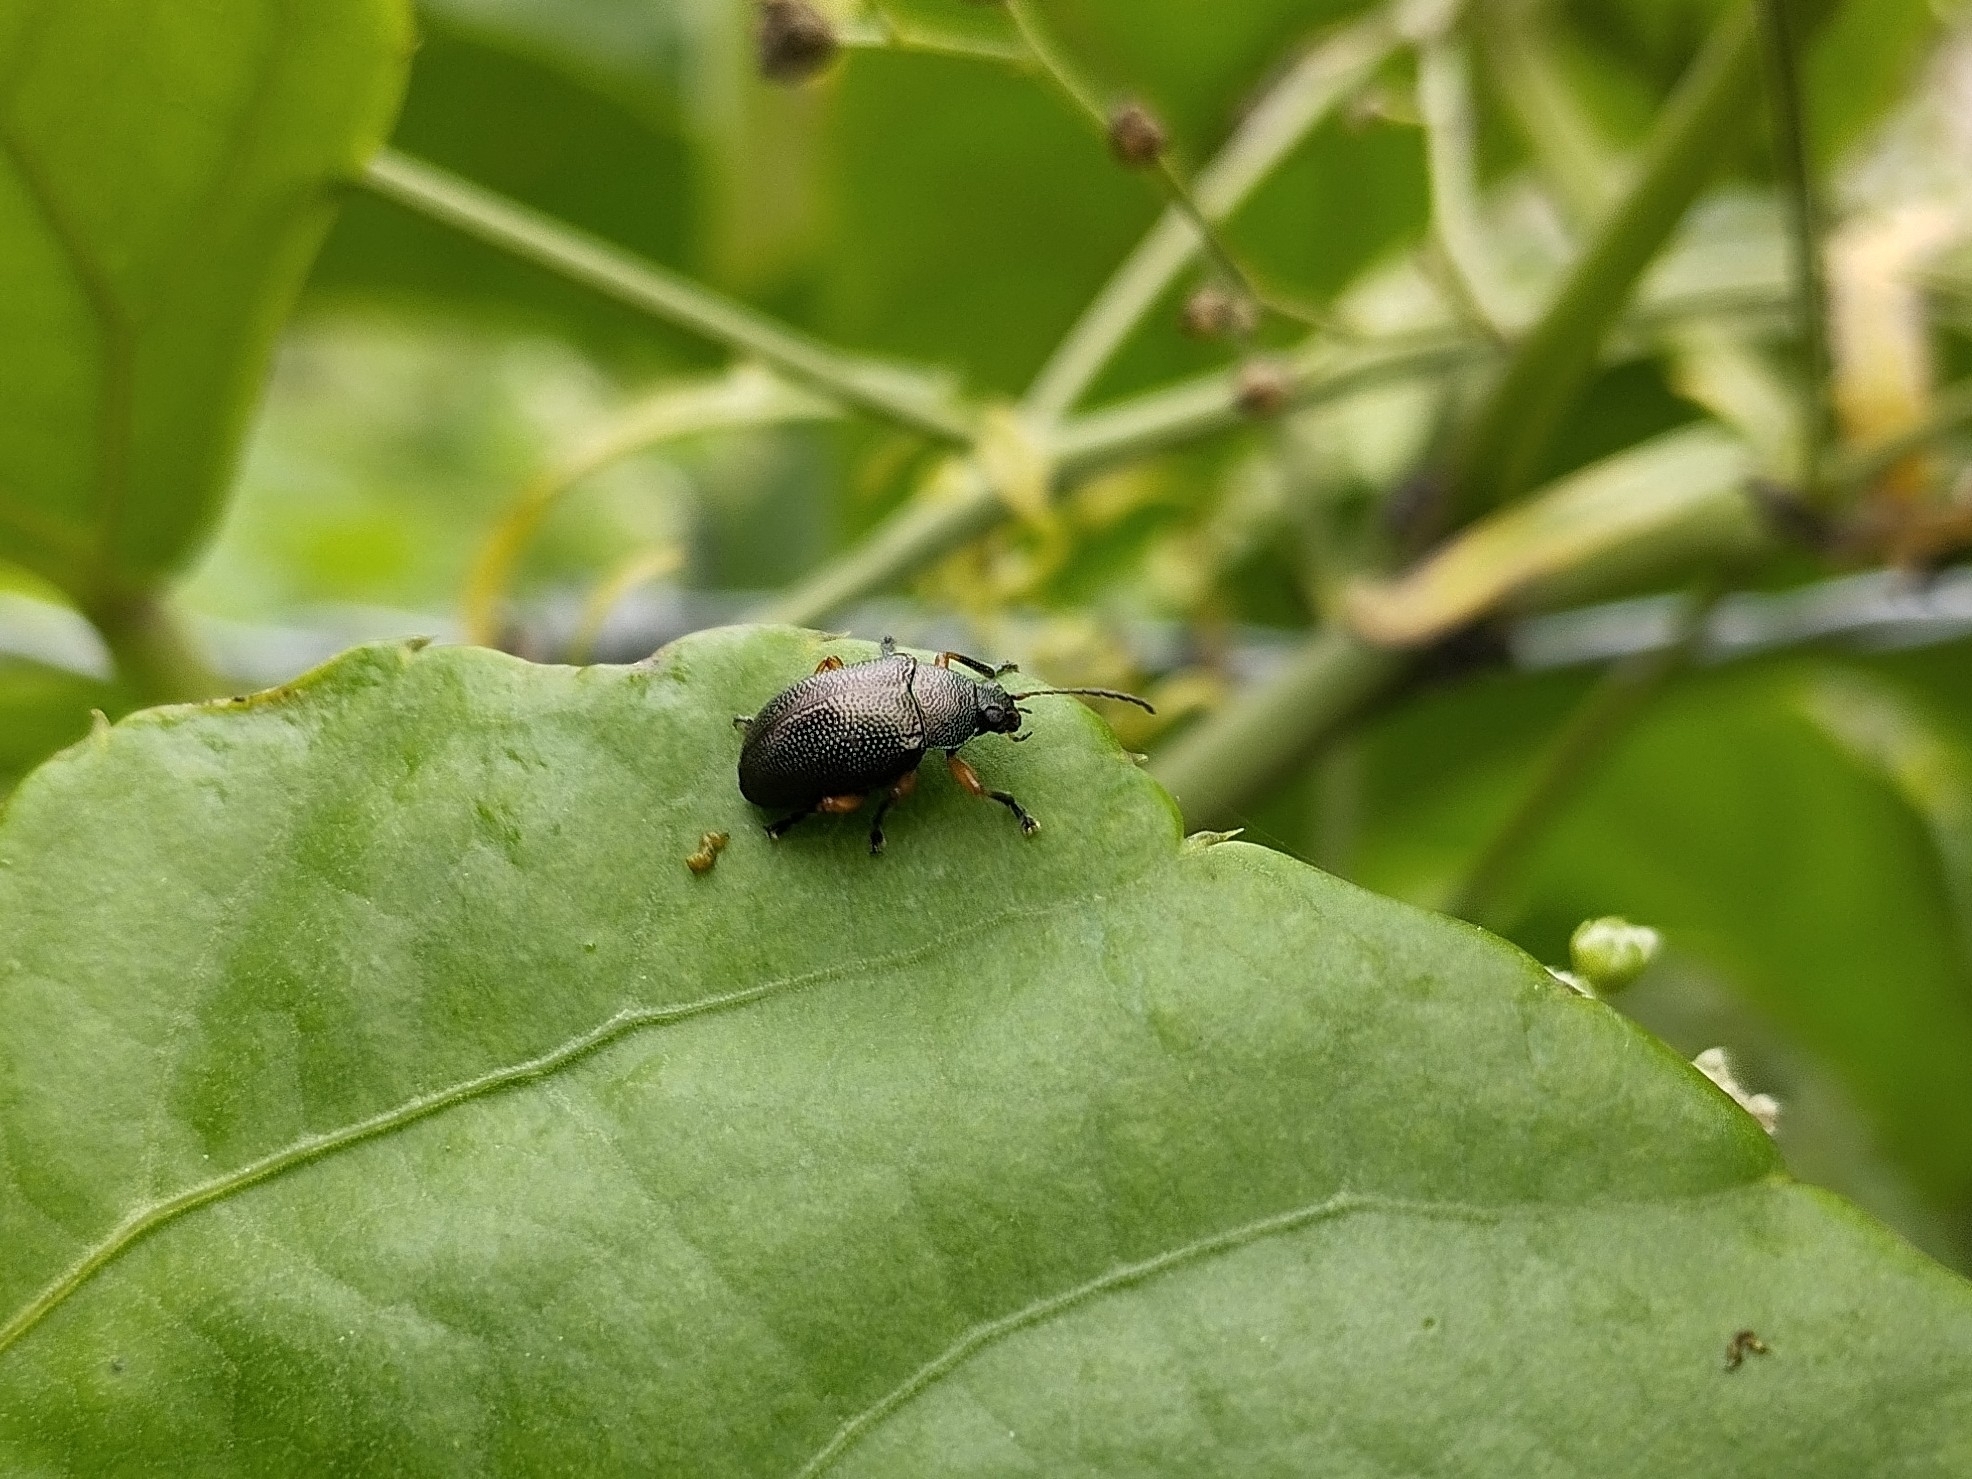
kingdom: Animalia
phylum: Arthropoda
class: Insecta
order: Coleoptera
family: Chrysomelidae
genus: Nodocolaspis
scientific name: Nodocolaspis
